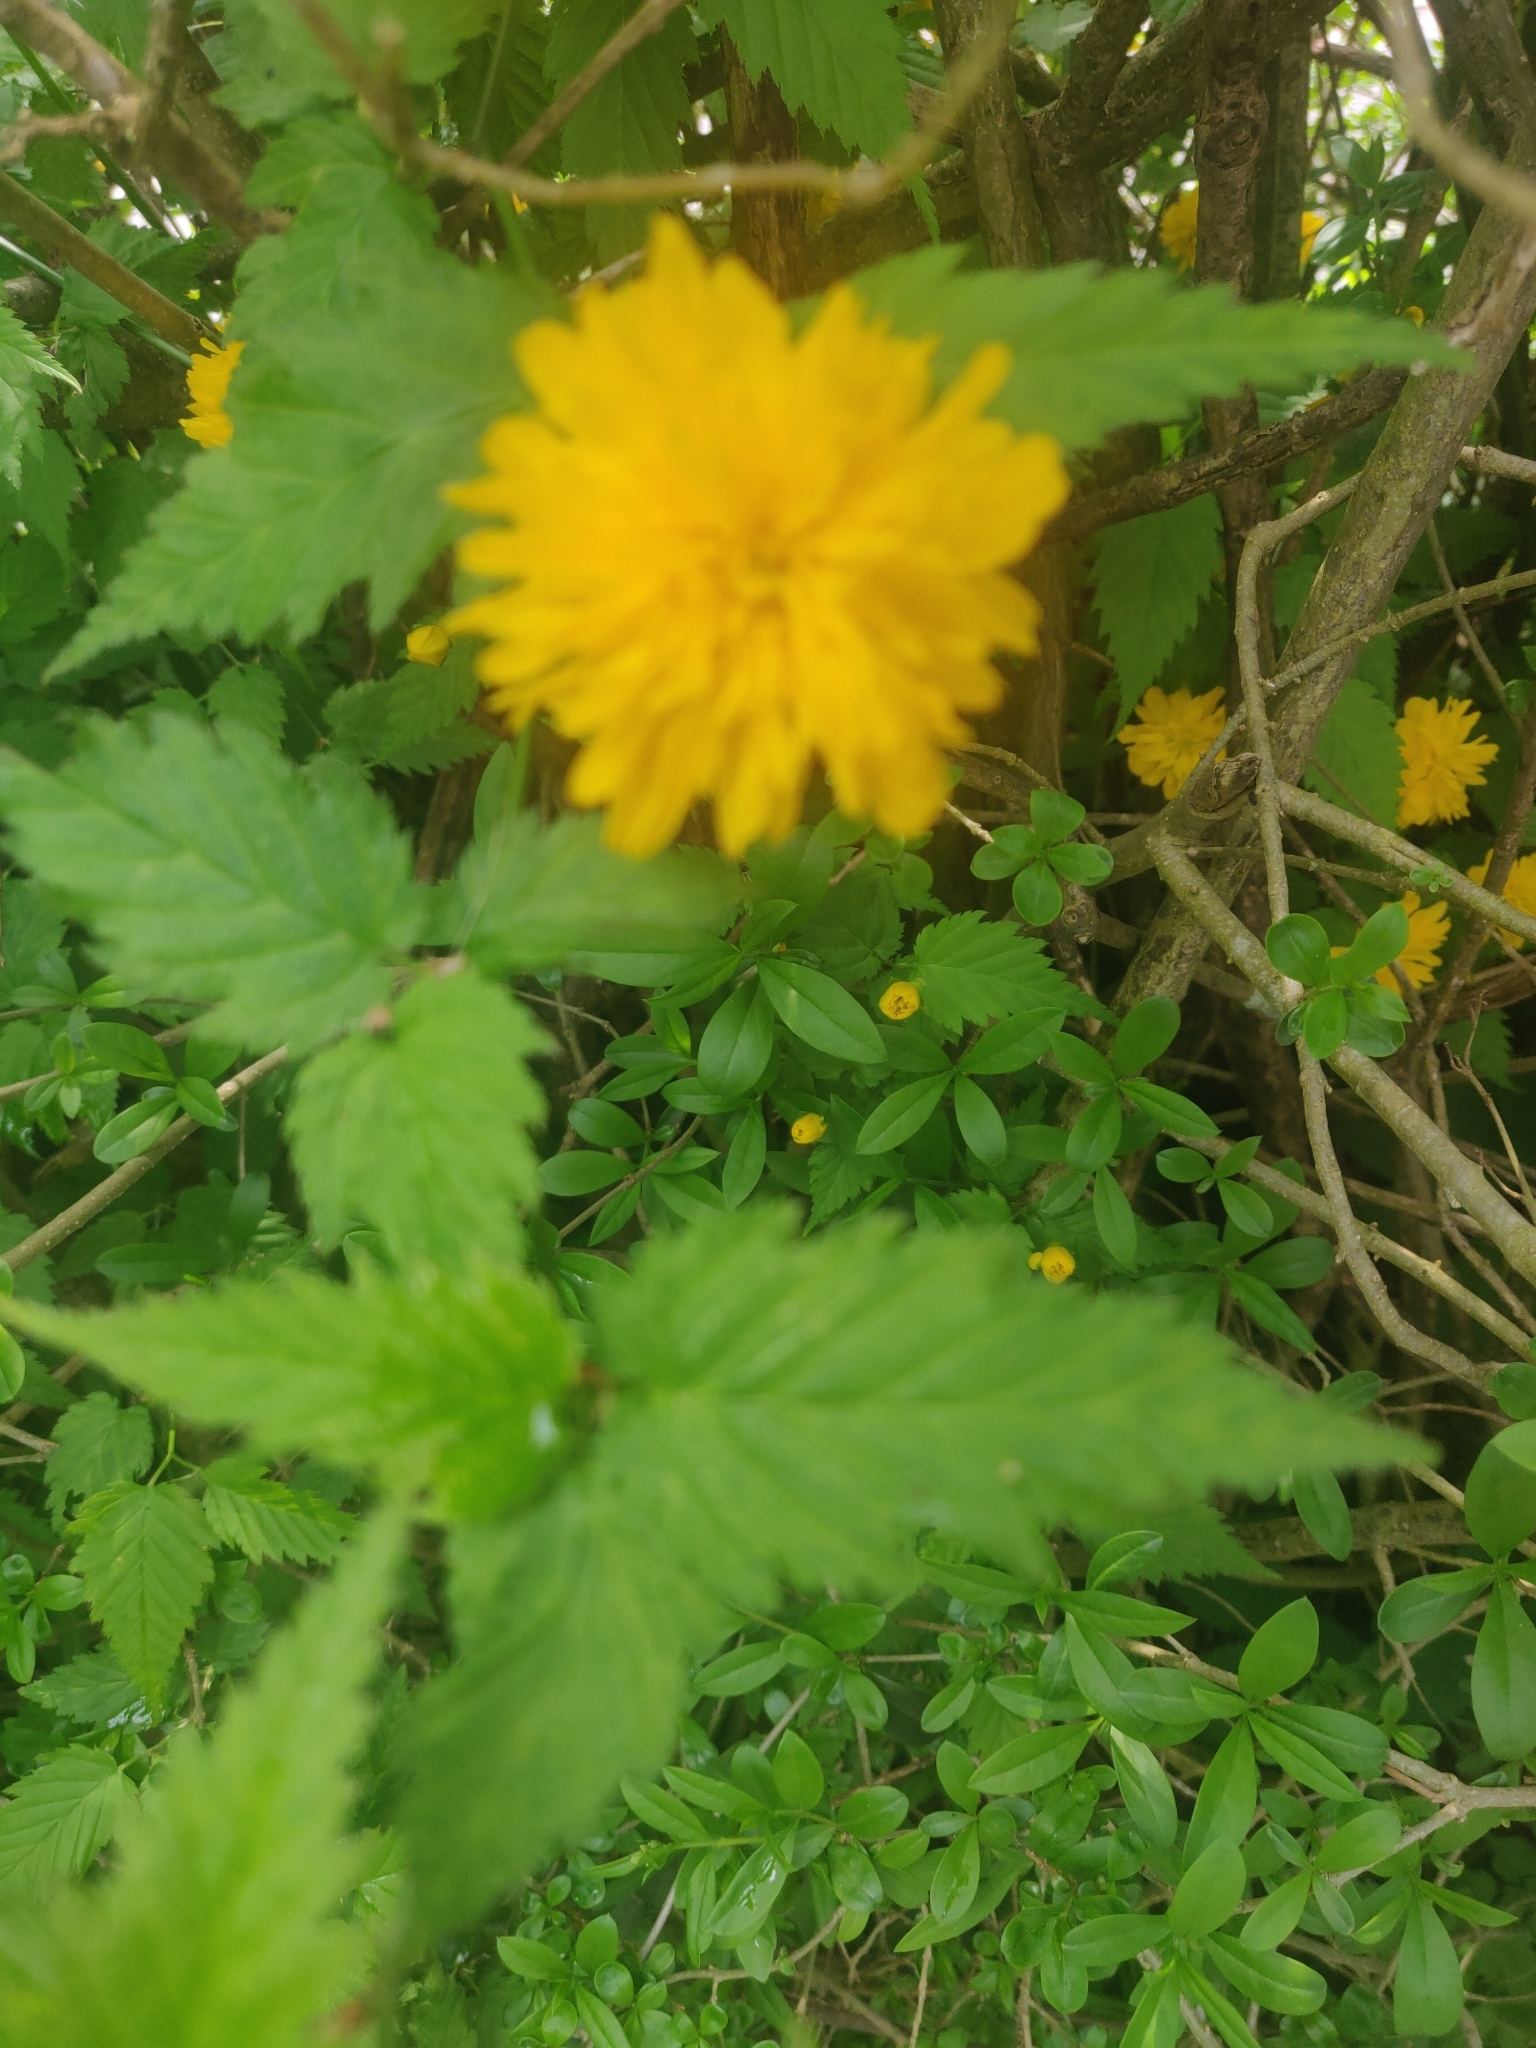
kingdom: Plantae
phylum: Tracheophyta
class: Magnoliopsida
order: Rosales
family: Rosaceae
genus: Kerria
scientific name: Kerria japonica
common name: Japanese kerria
